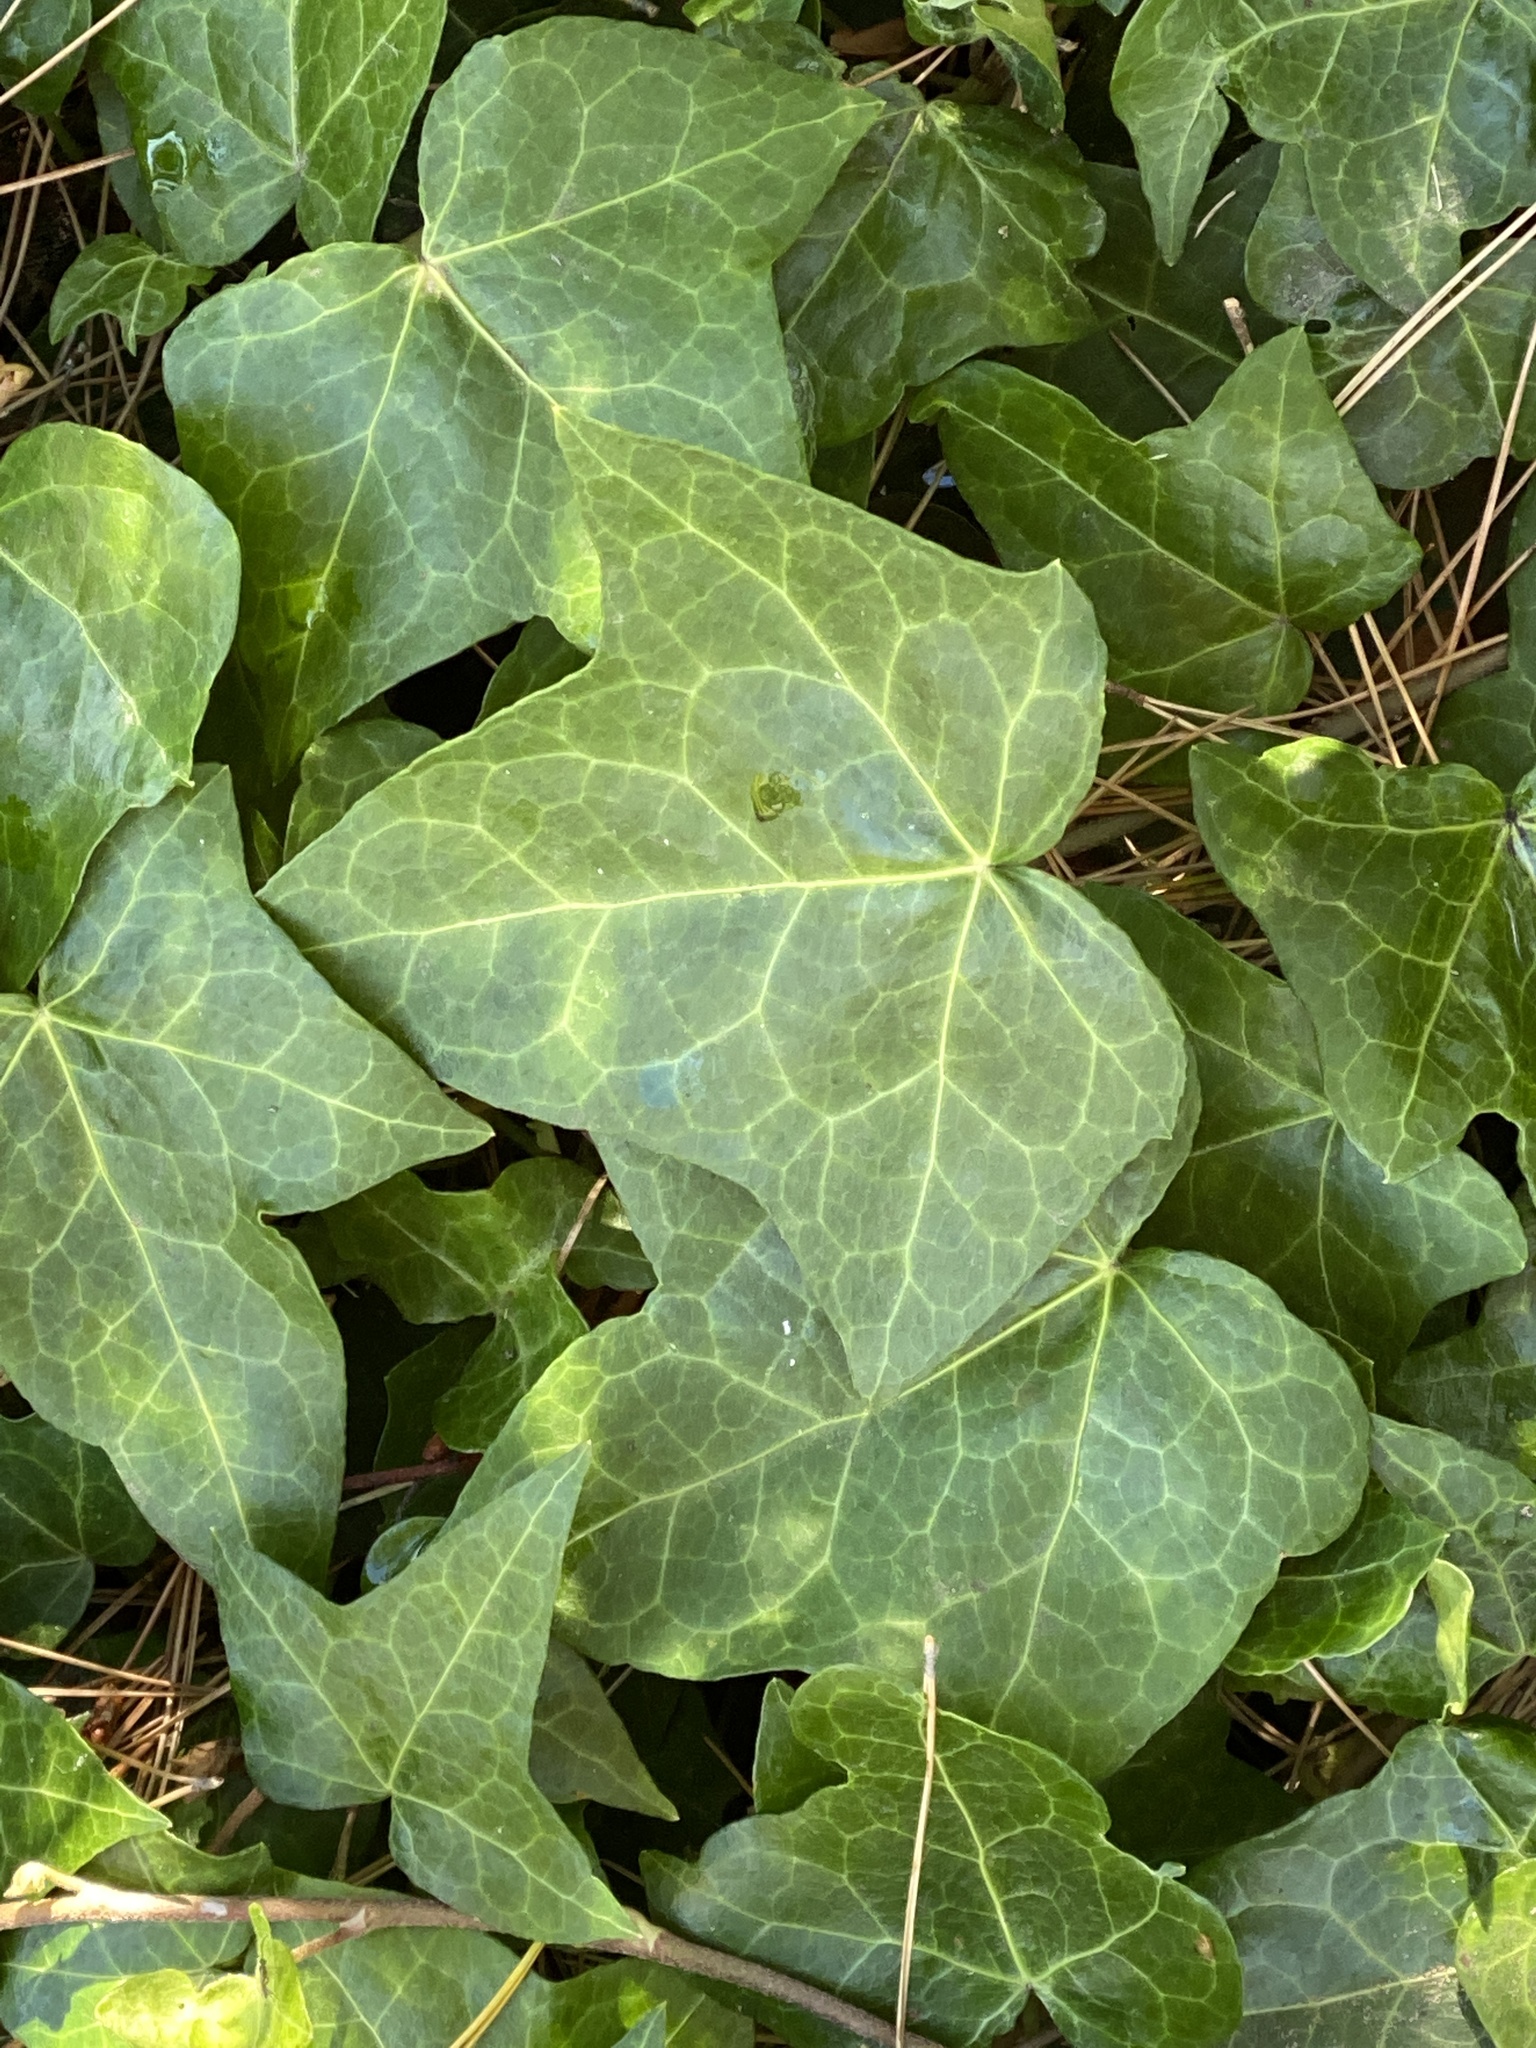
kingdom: Plantae
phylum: Tracheophyta
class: Magnoliopsida
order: Apiales
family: Araliaceae
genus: Hedera
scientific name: Hedera helix
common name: Ivy
